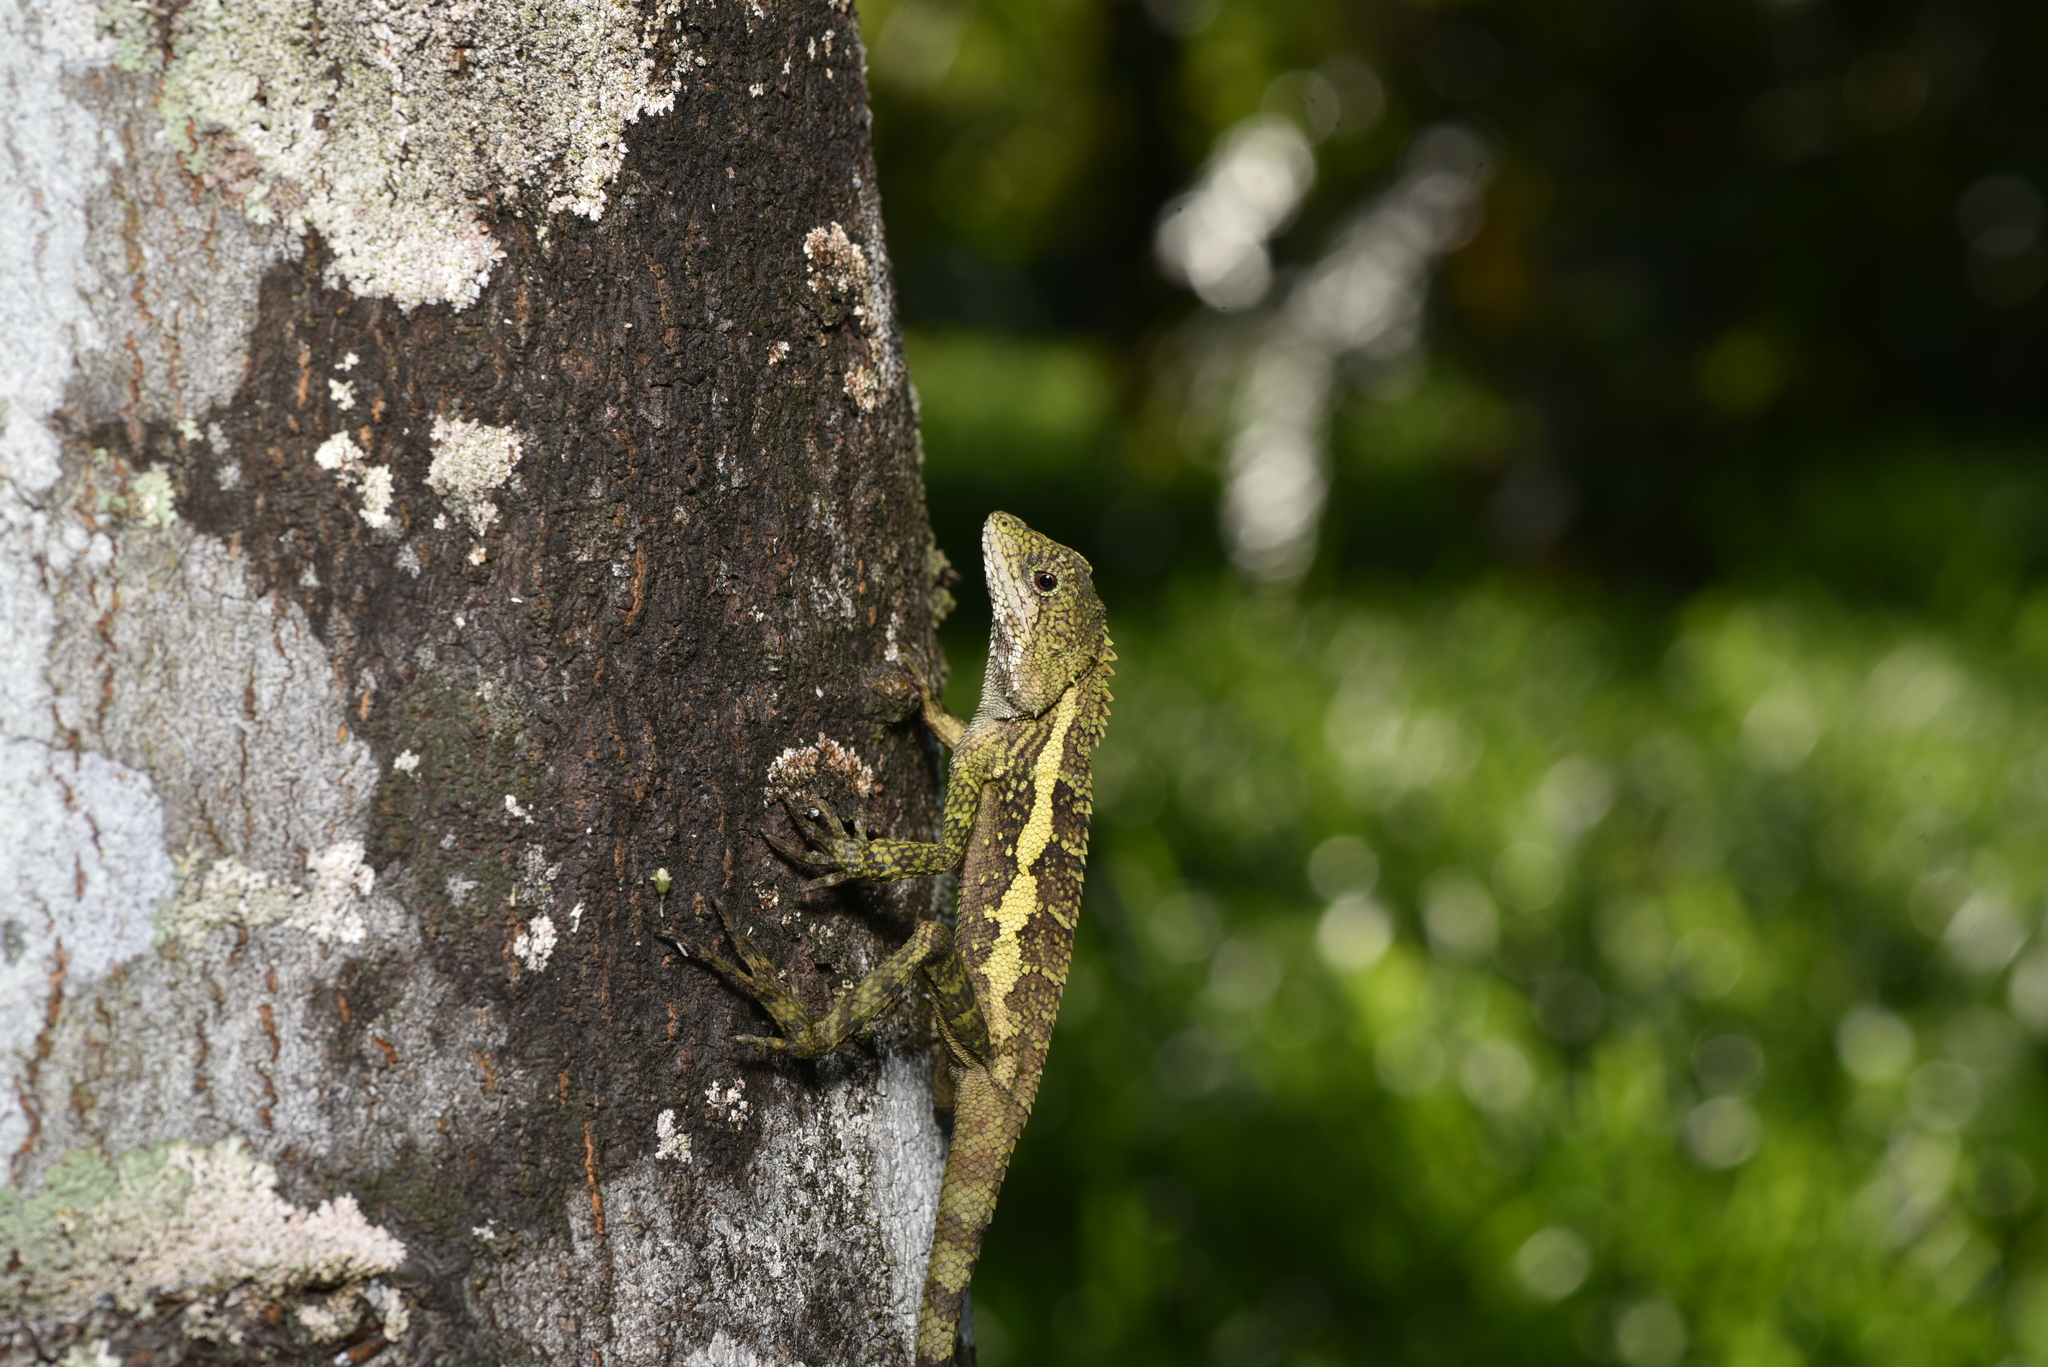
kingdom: Animalia
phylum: Chordata
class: Squamata
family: Agamidae
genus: Diploderma
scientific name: Diploderma swinhonis
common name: Taiwan japalure
